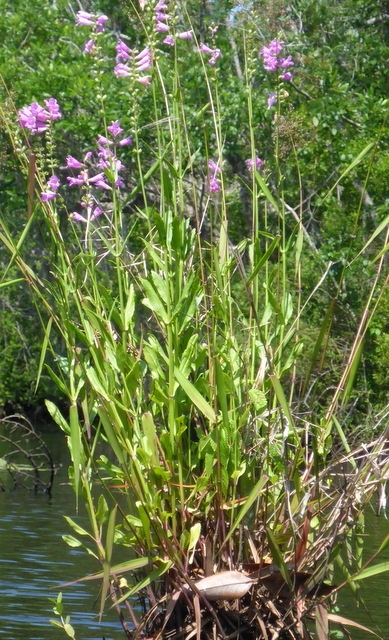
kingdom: Plantae
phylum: Tracheophyta
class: Magnoliopsida
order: Lamiales
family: Lamiaceae
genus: Physostegia
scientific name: Physostegia leptophylla
